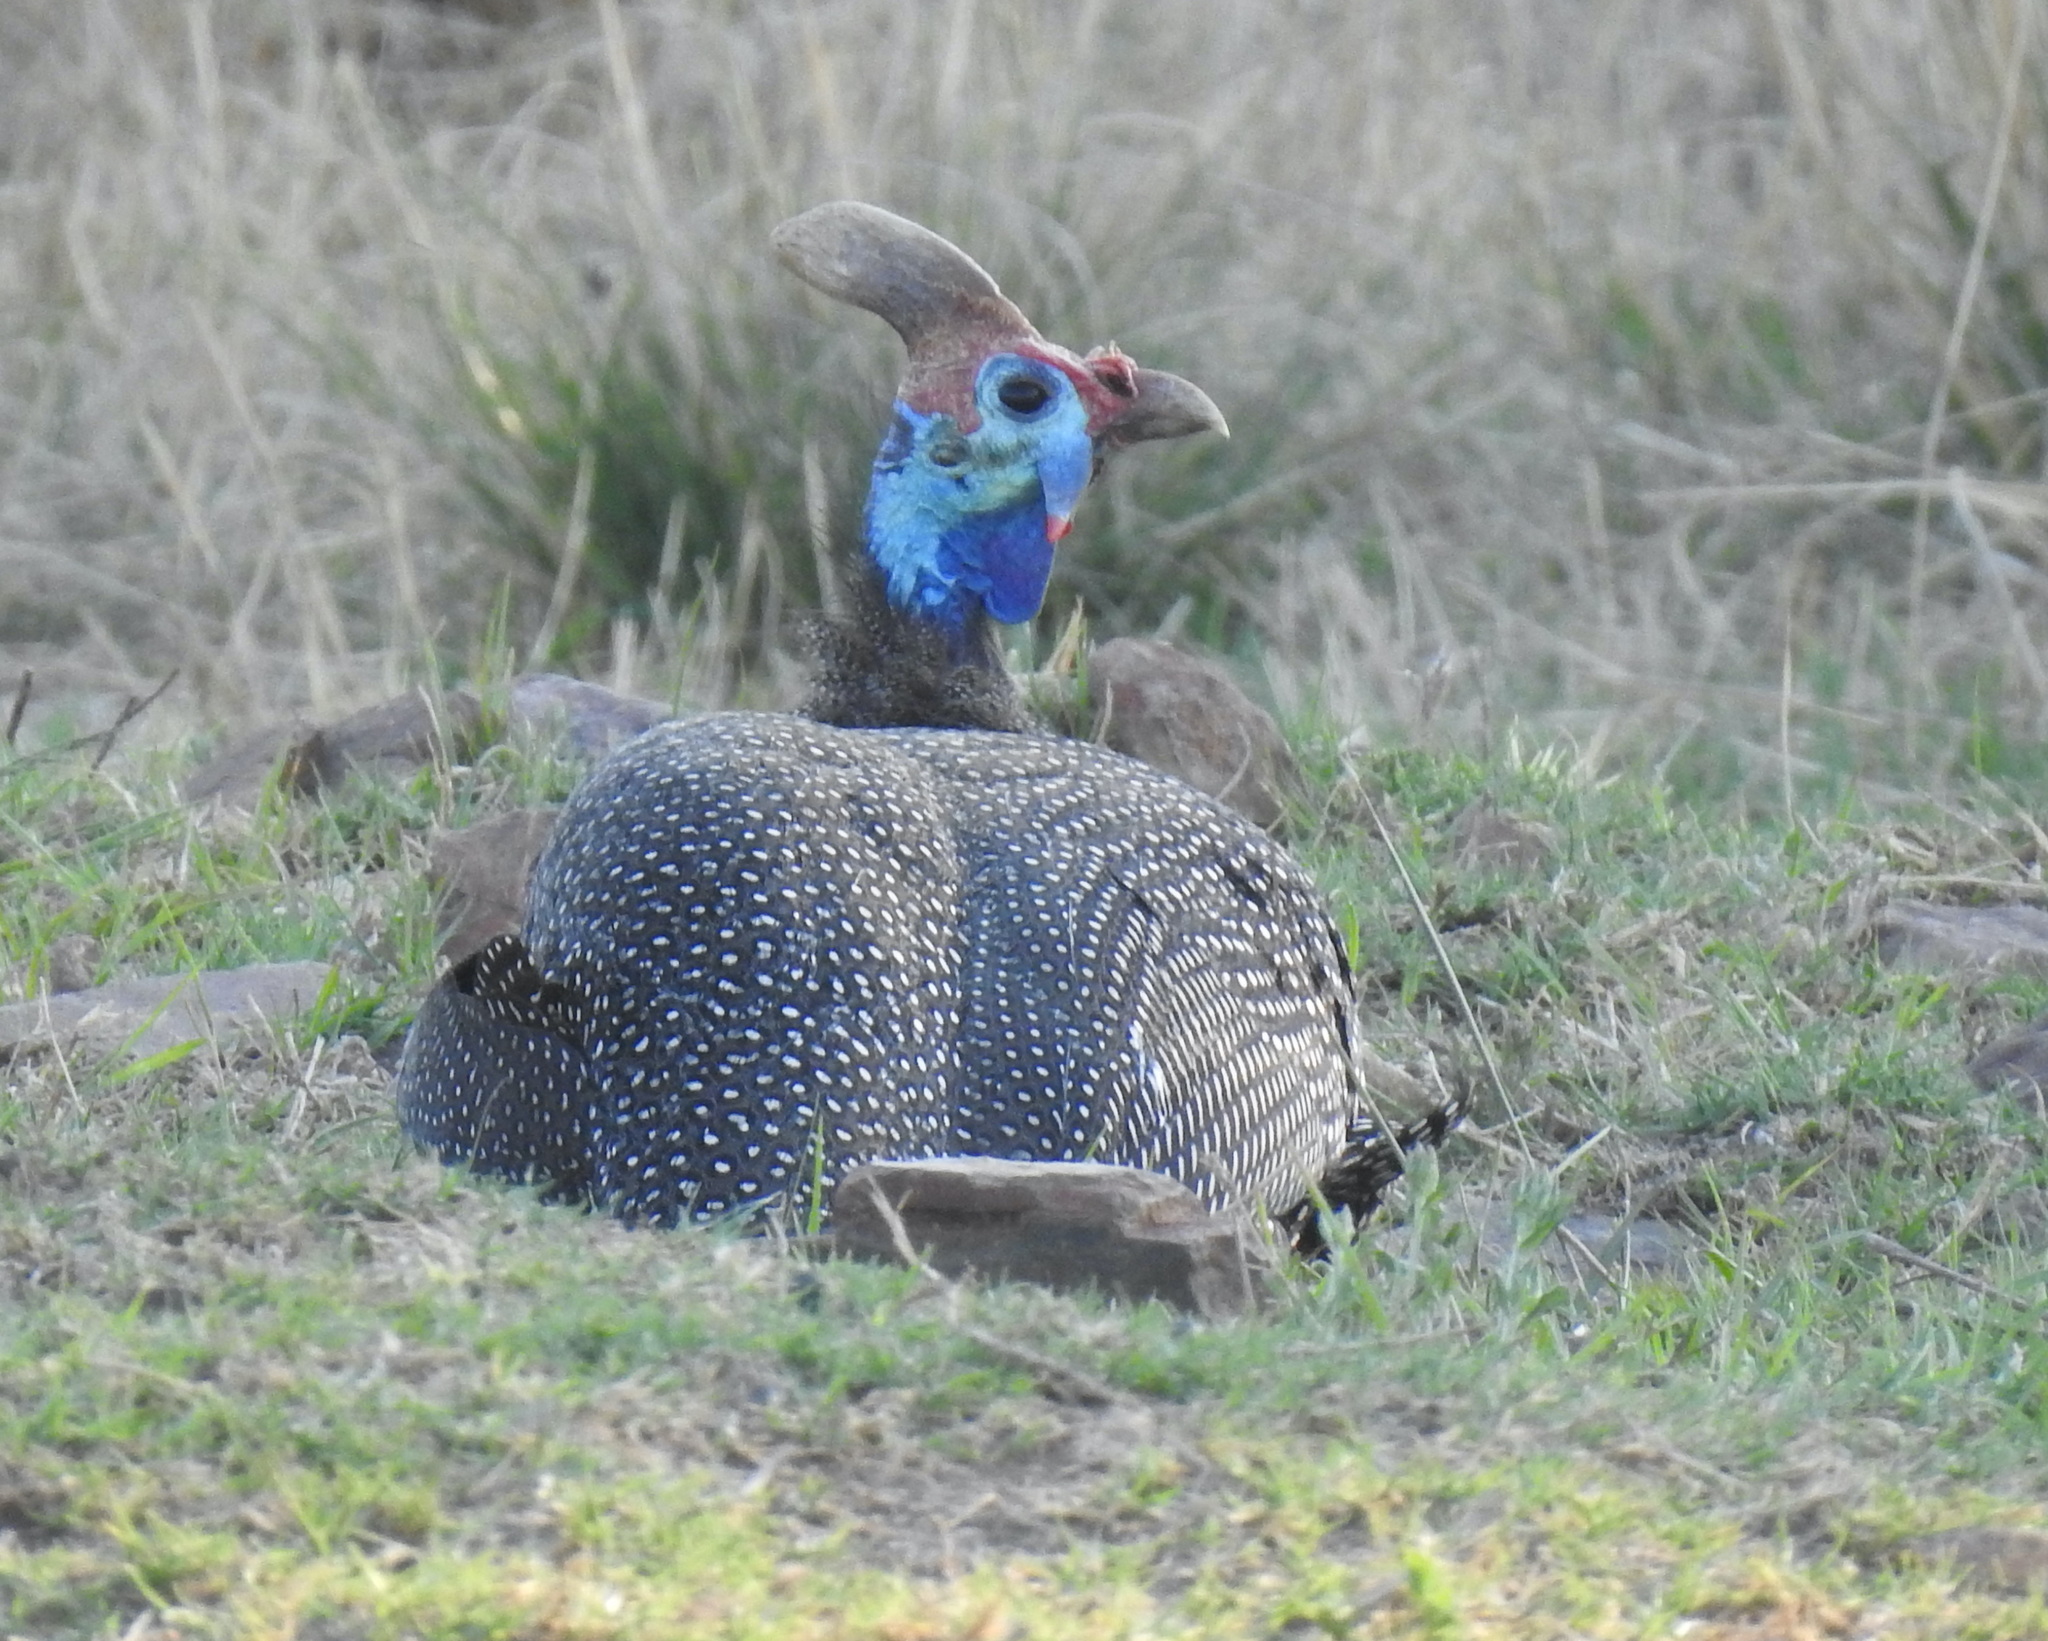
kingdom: Animalia
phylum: Chordata
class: Aves
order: Galliformes
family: Numididae
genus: Numida
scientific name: Numida meleagris
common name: Helmeted guineafowl
